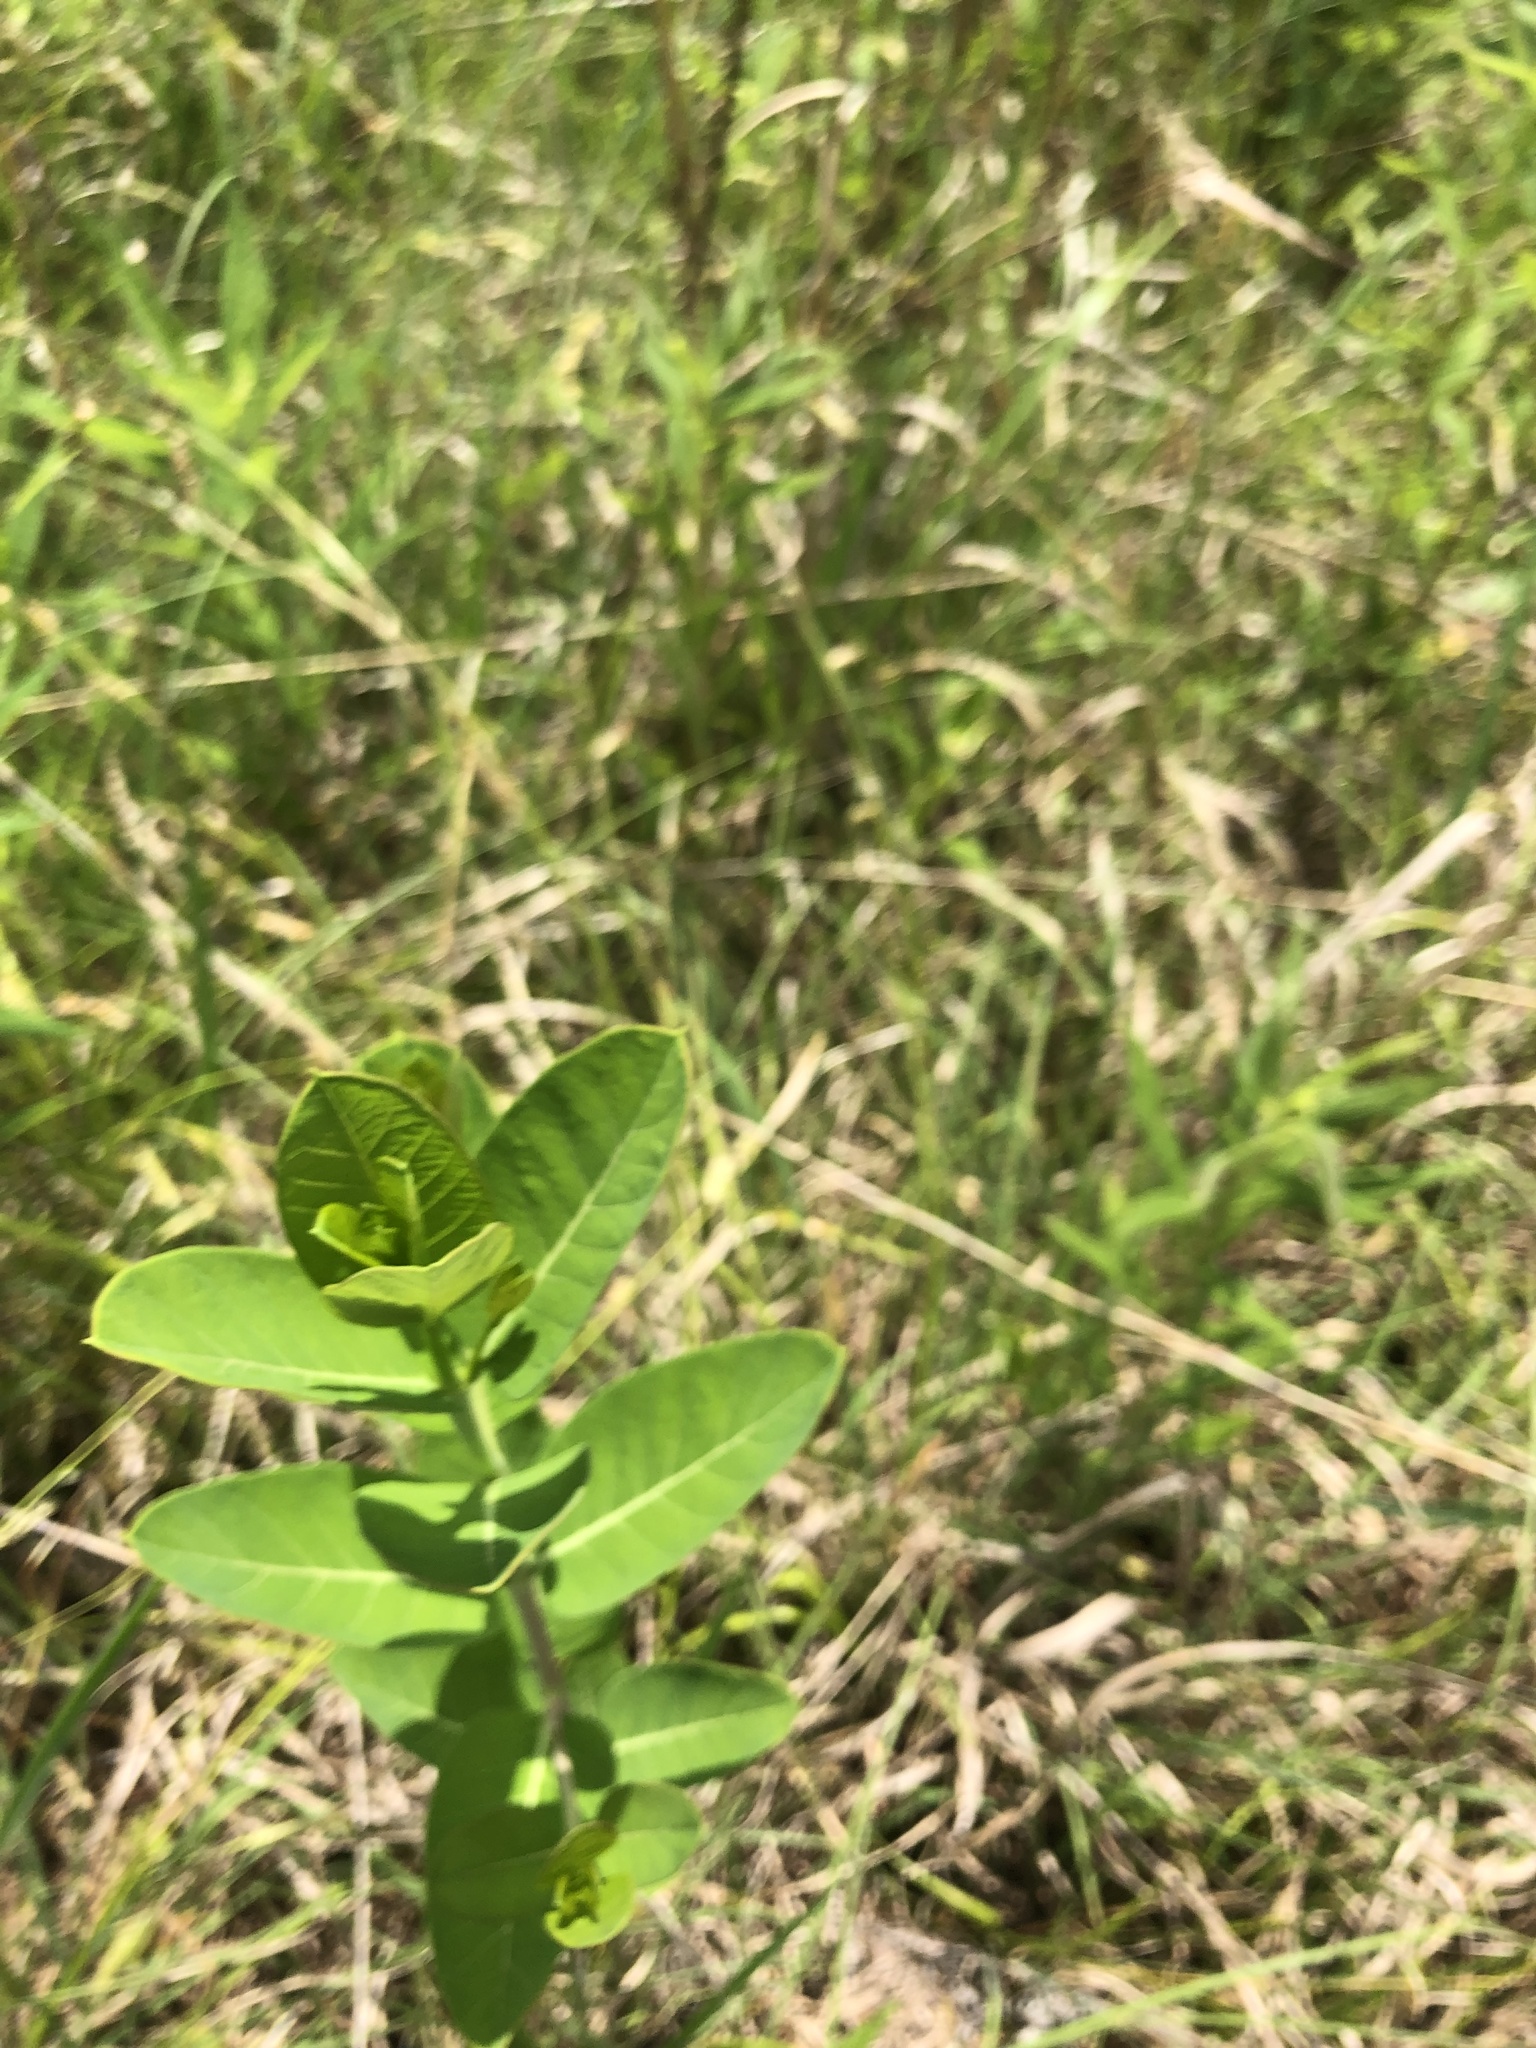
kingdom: Plantae
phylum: Tracheophyta
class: Magnoliopsida
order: Gentianales
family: Apocynaceae
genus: Apocynum
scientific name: Apocynum cannabinum
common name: Hemp dogbane
